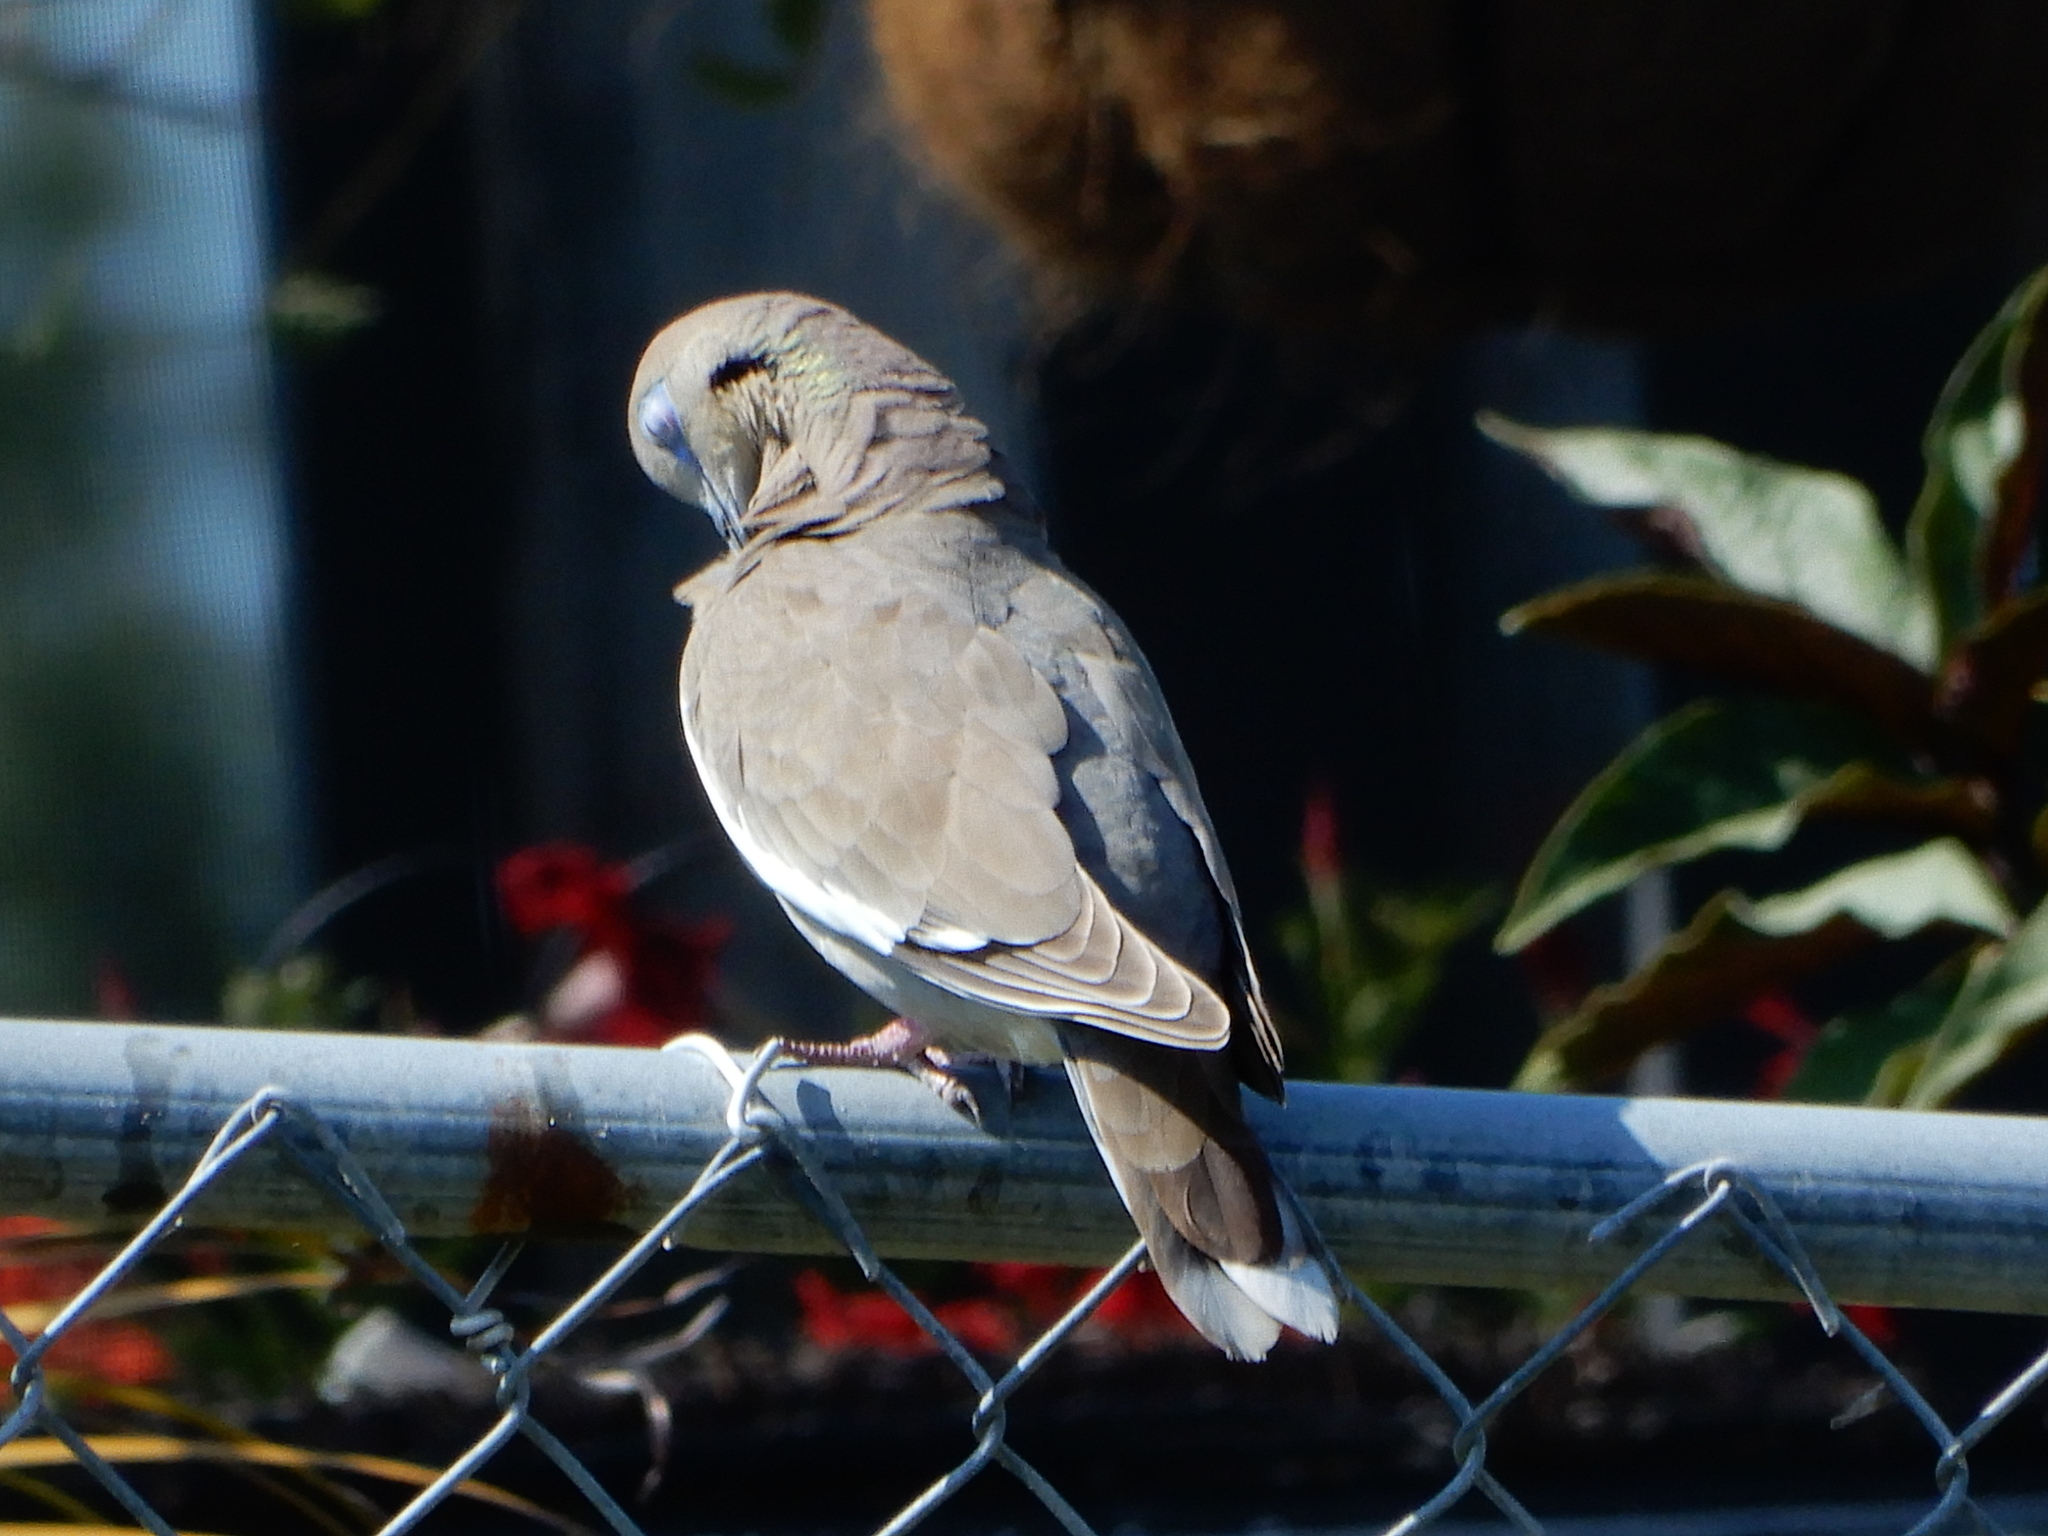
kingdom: Animalia
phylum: Chordata
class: Aves
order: Columbiformes
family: Columbidae
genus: Zenaida
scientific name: Zenaida asiatica
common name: White-winged dove
